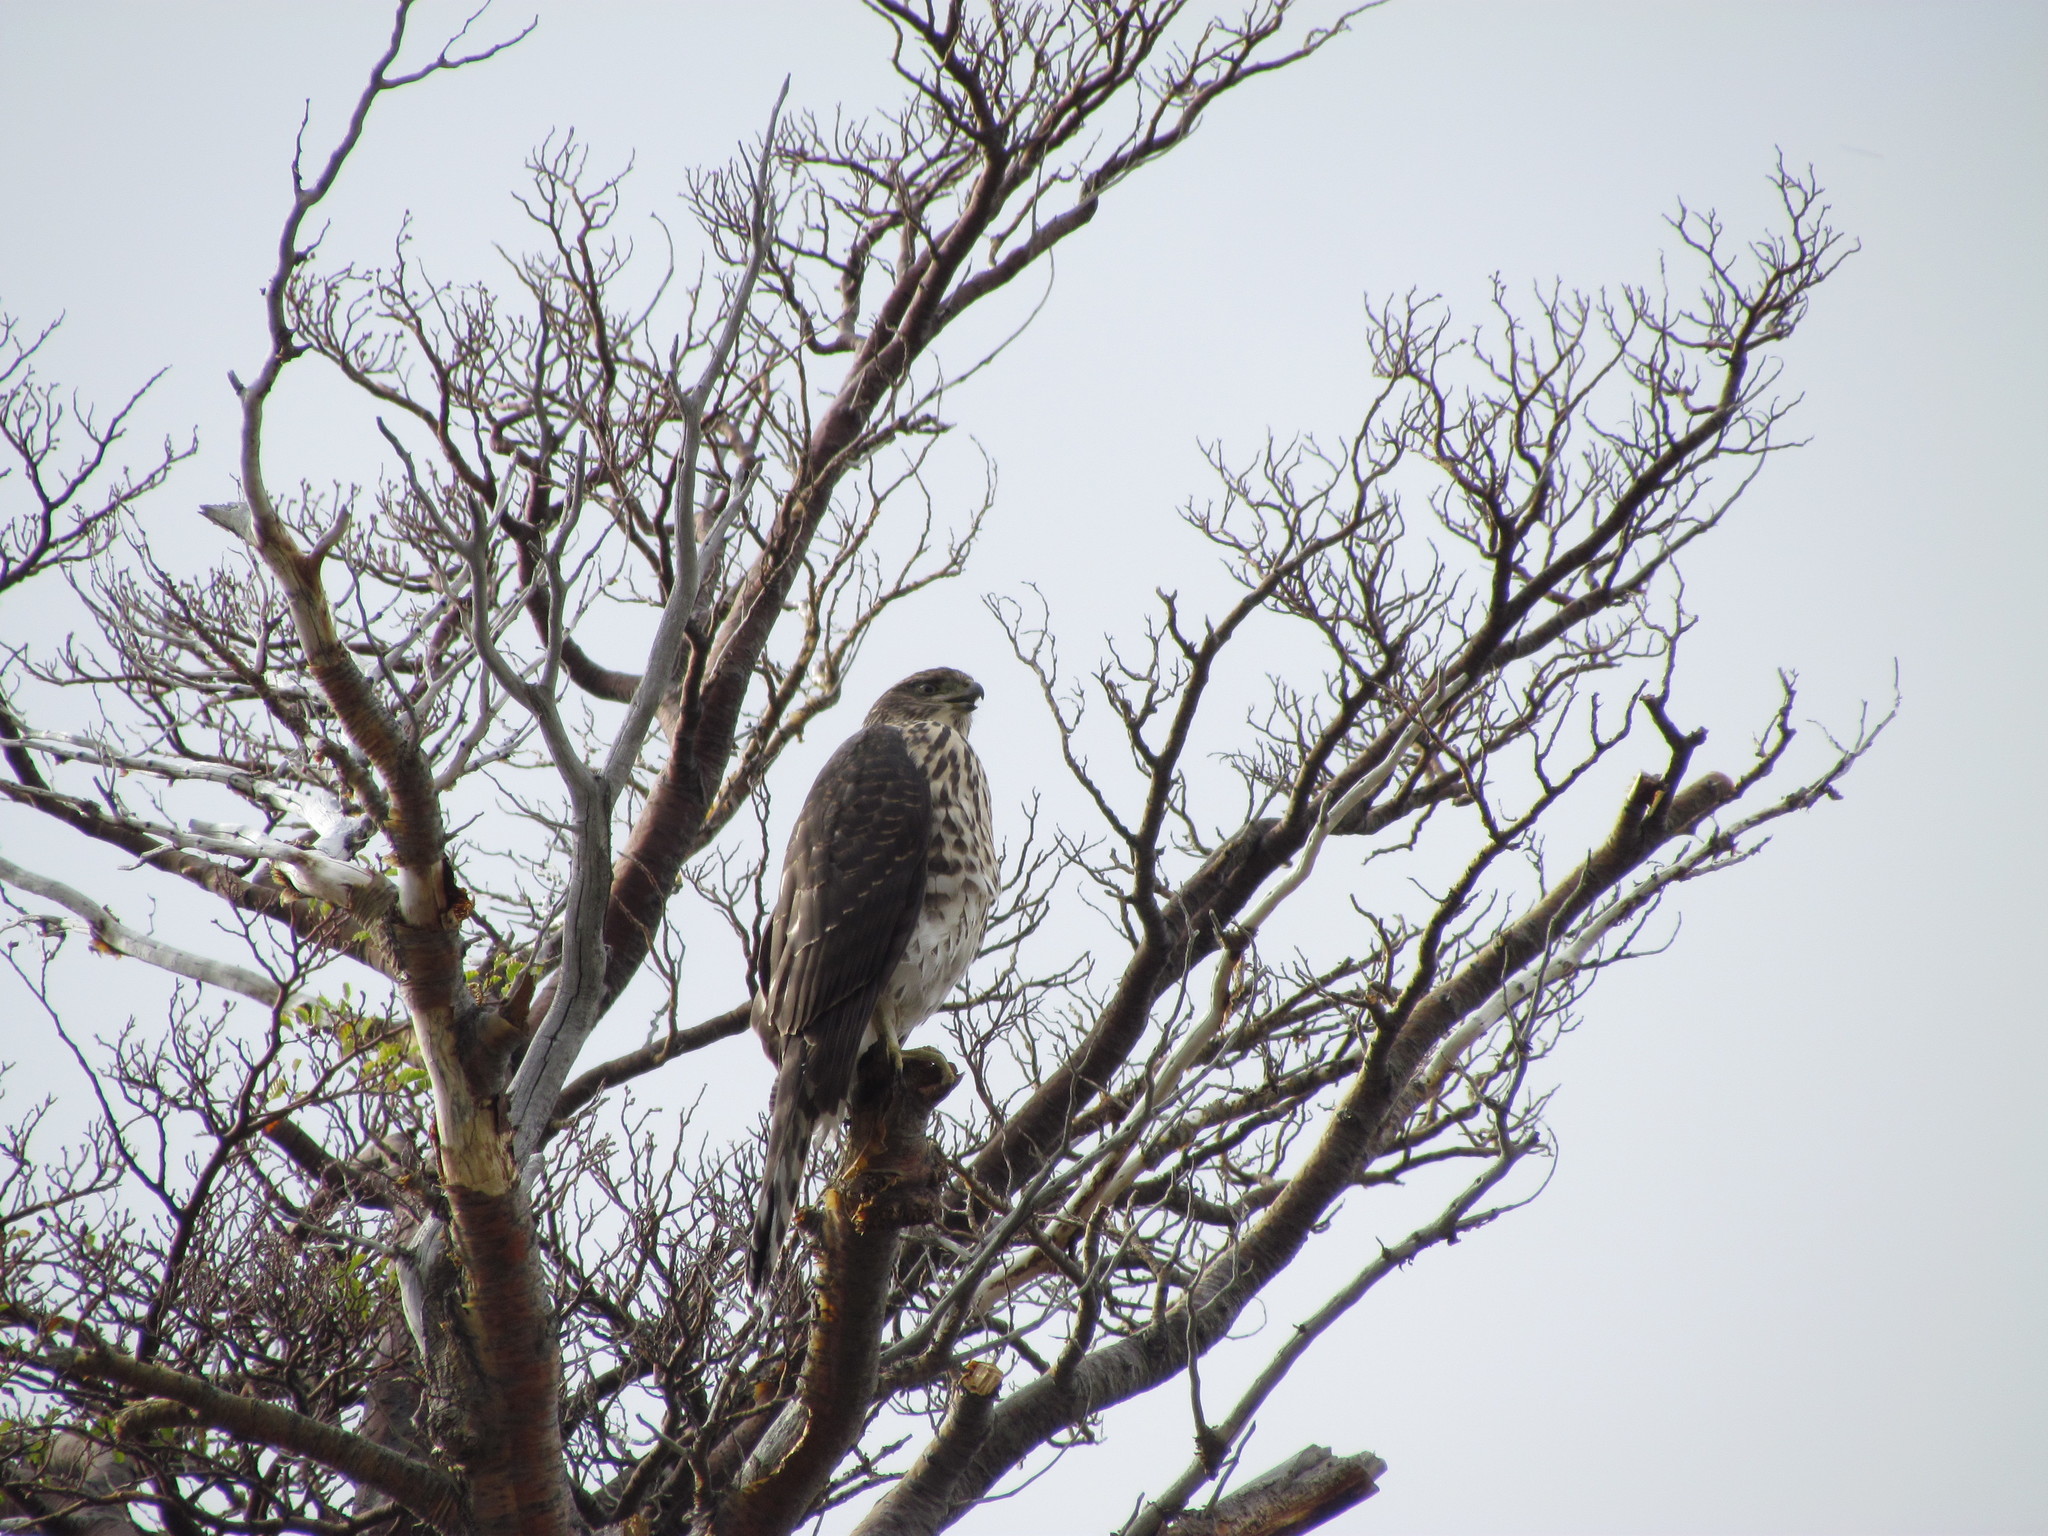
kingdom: Animalia
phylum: Chordata
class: Aves
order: Accipitriformes
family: Accipitridae
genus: Accipiter
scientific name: Accipiter chilensis
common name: Chilean hawk
